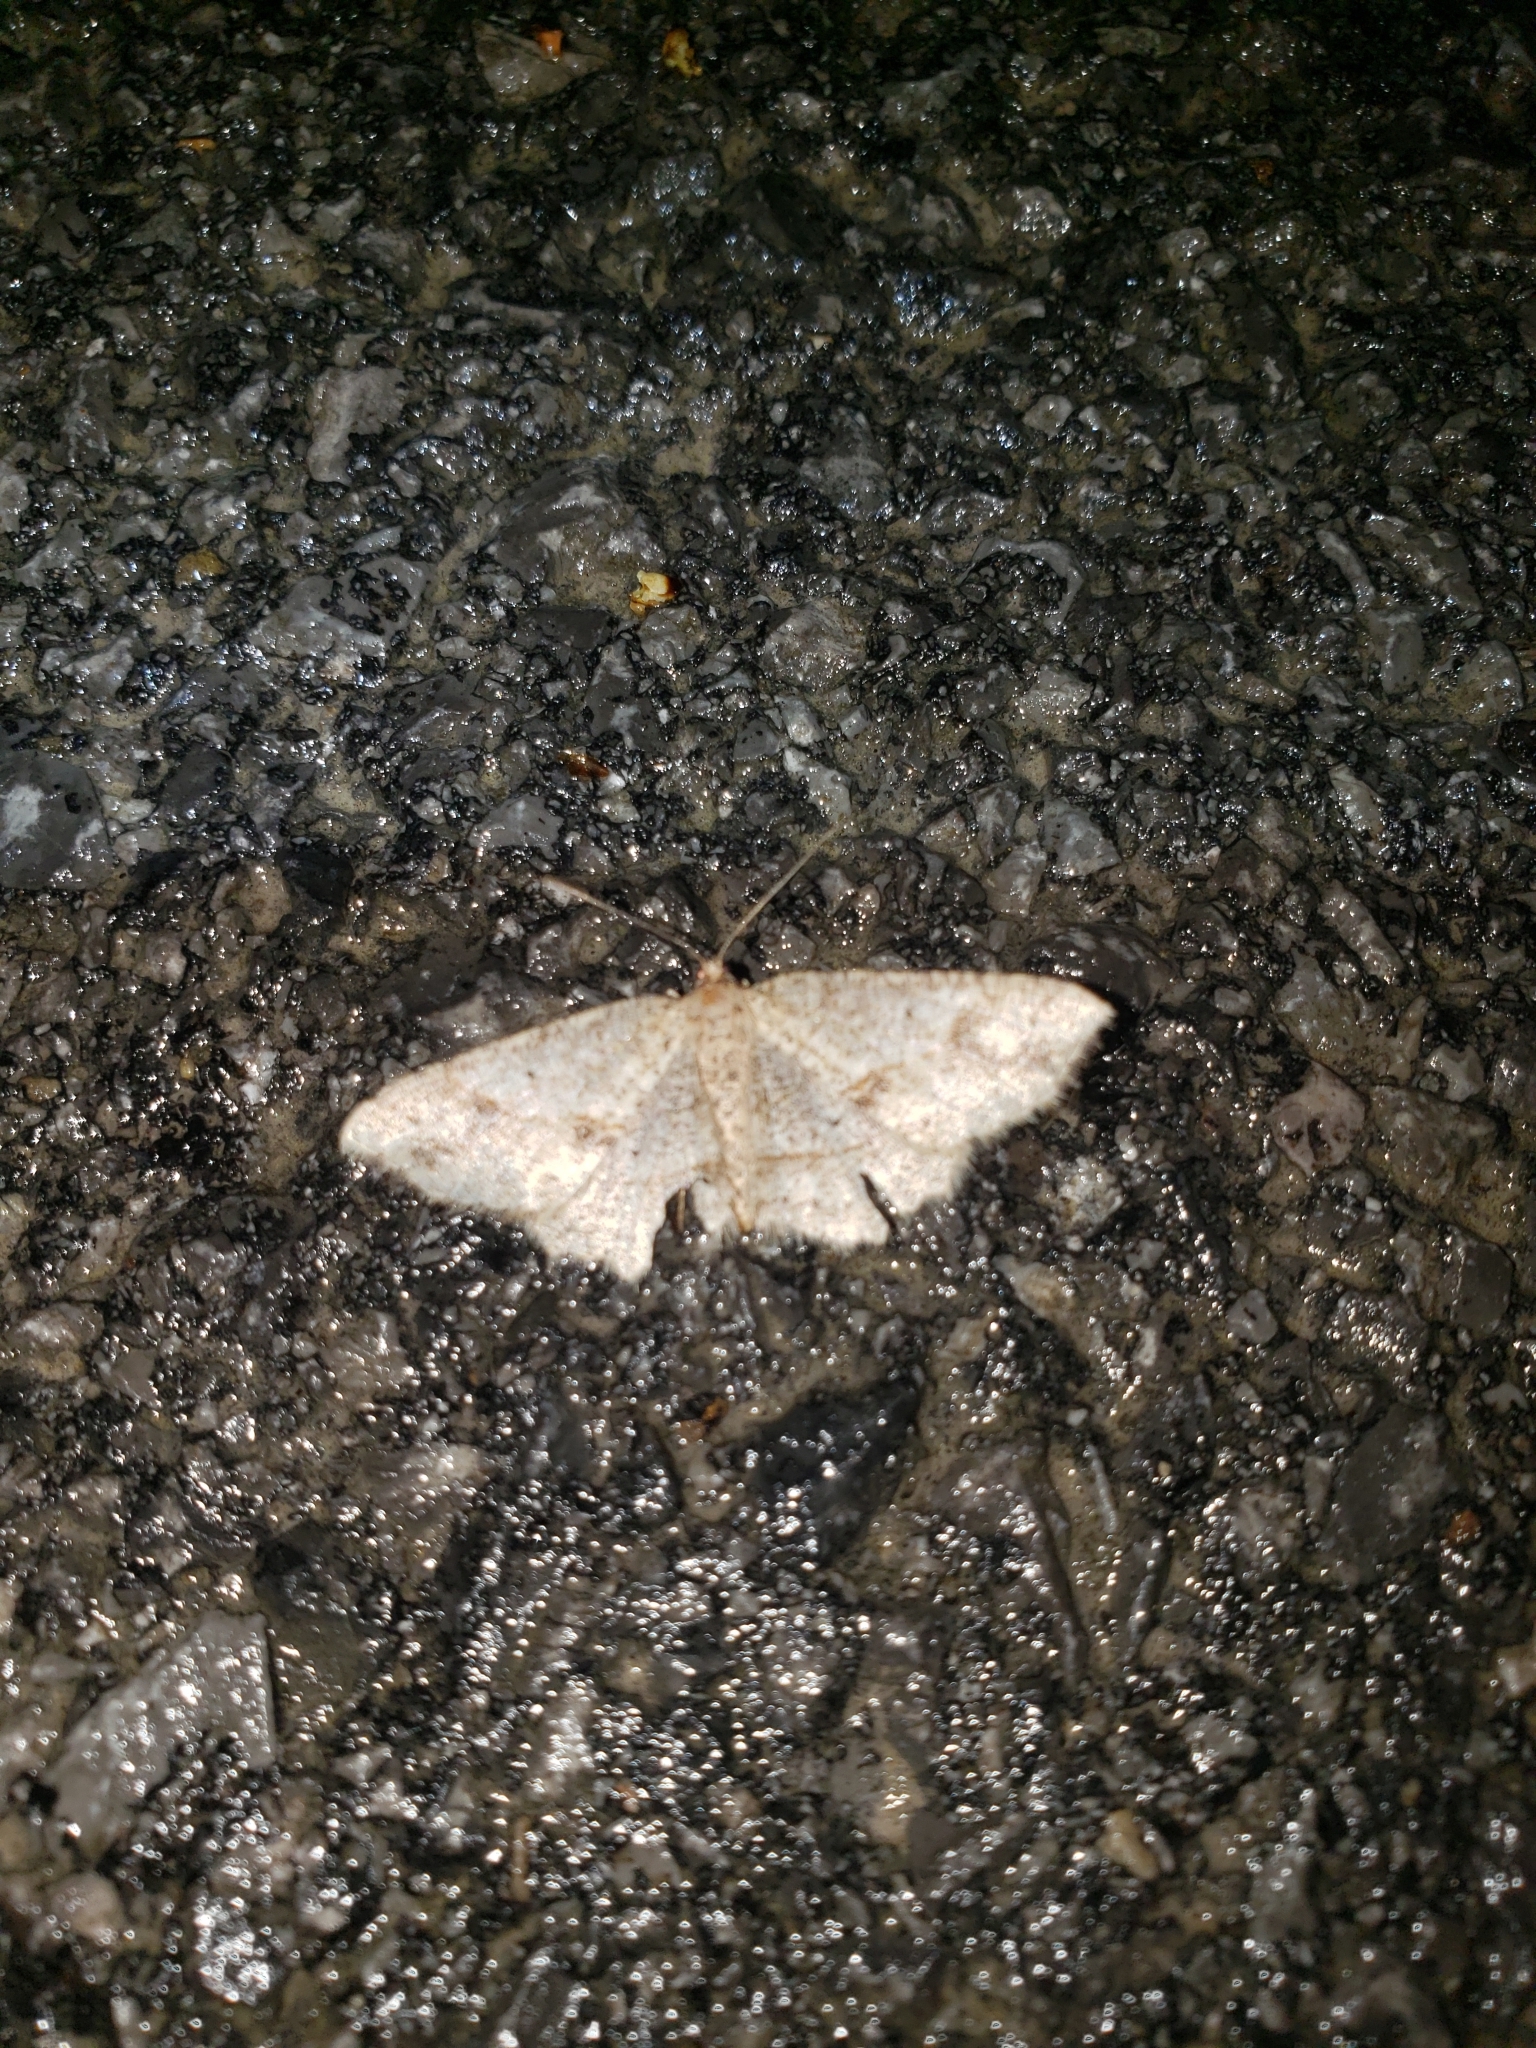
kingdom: Animalia
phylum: Arthropoda
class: Insecta
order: Lepidoptera
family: Geometridae
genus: Melanolophia
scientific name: Melanolophia signataria
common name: Signate melanolophia
